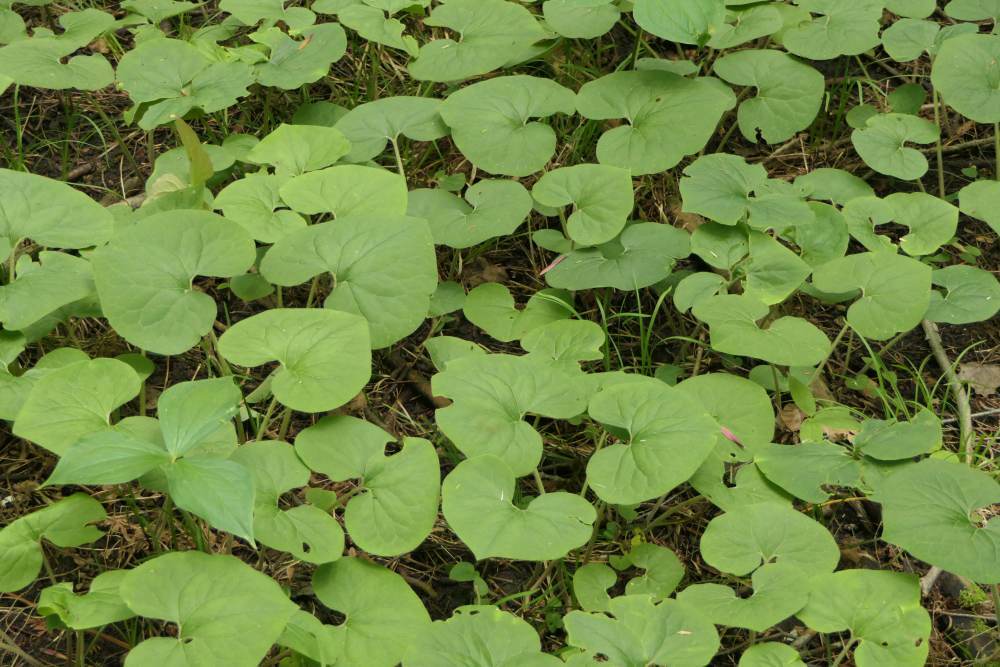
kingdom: Plantae
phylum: Tracheophyta
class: Magnoliopsida
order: Piperales
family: Aristolochiaceae
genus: Asarum
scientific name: Asarum canadense
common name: Wild ginger
